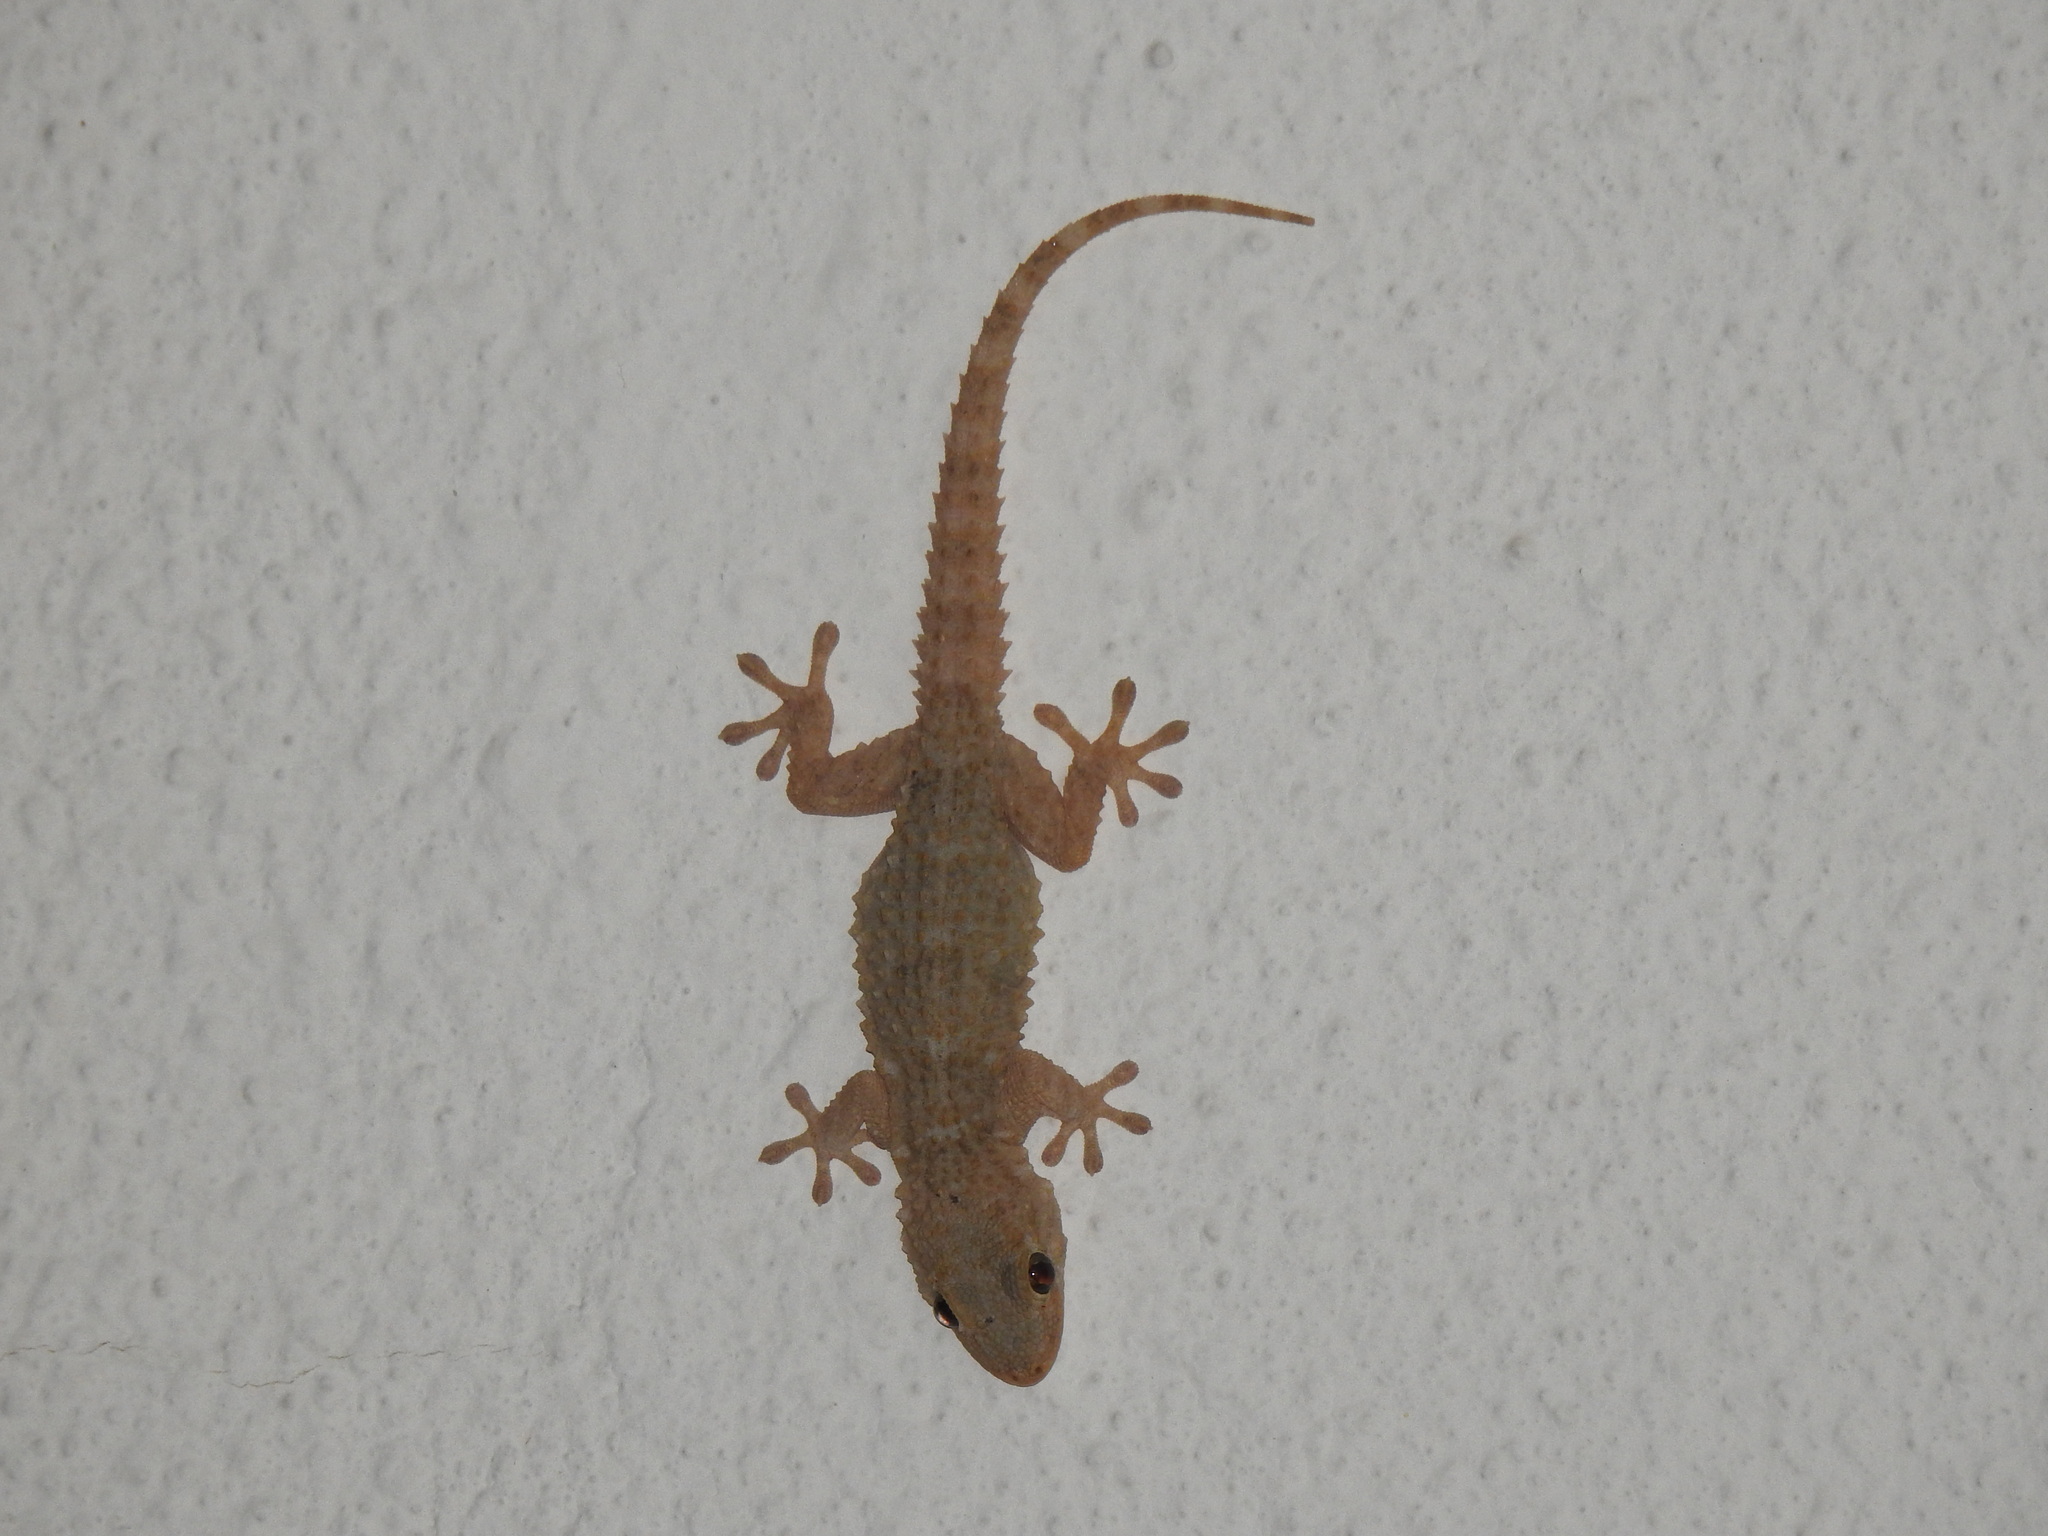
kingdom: Animalia
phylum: Chordata
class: Squamata
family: Phyllodactylidae
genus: Tarentola
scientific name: Tarentola mauritanica
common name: Moorish gecko
